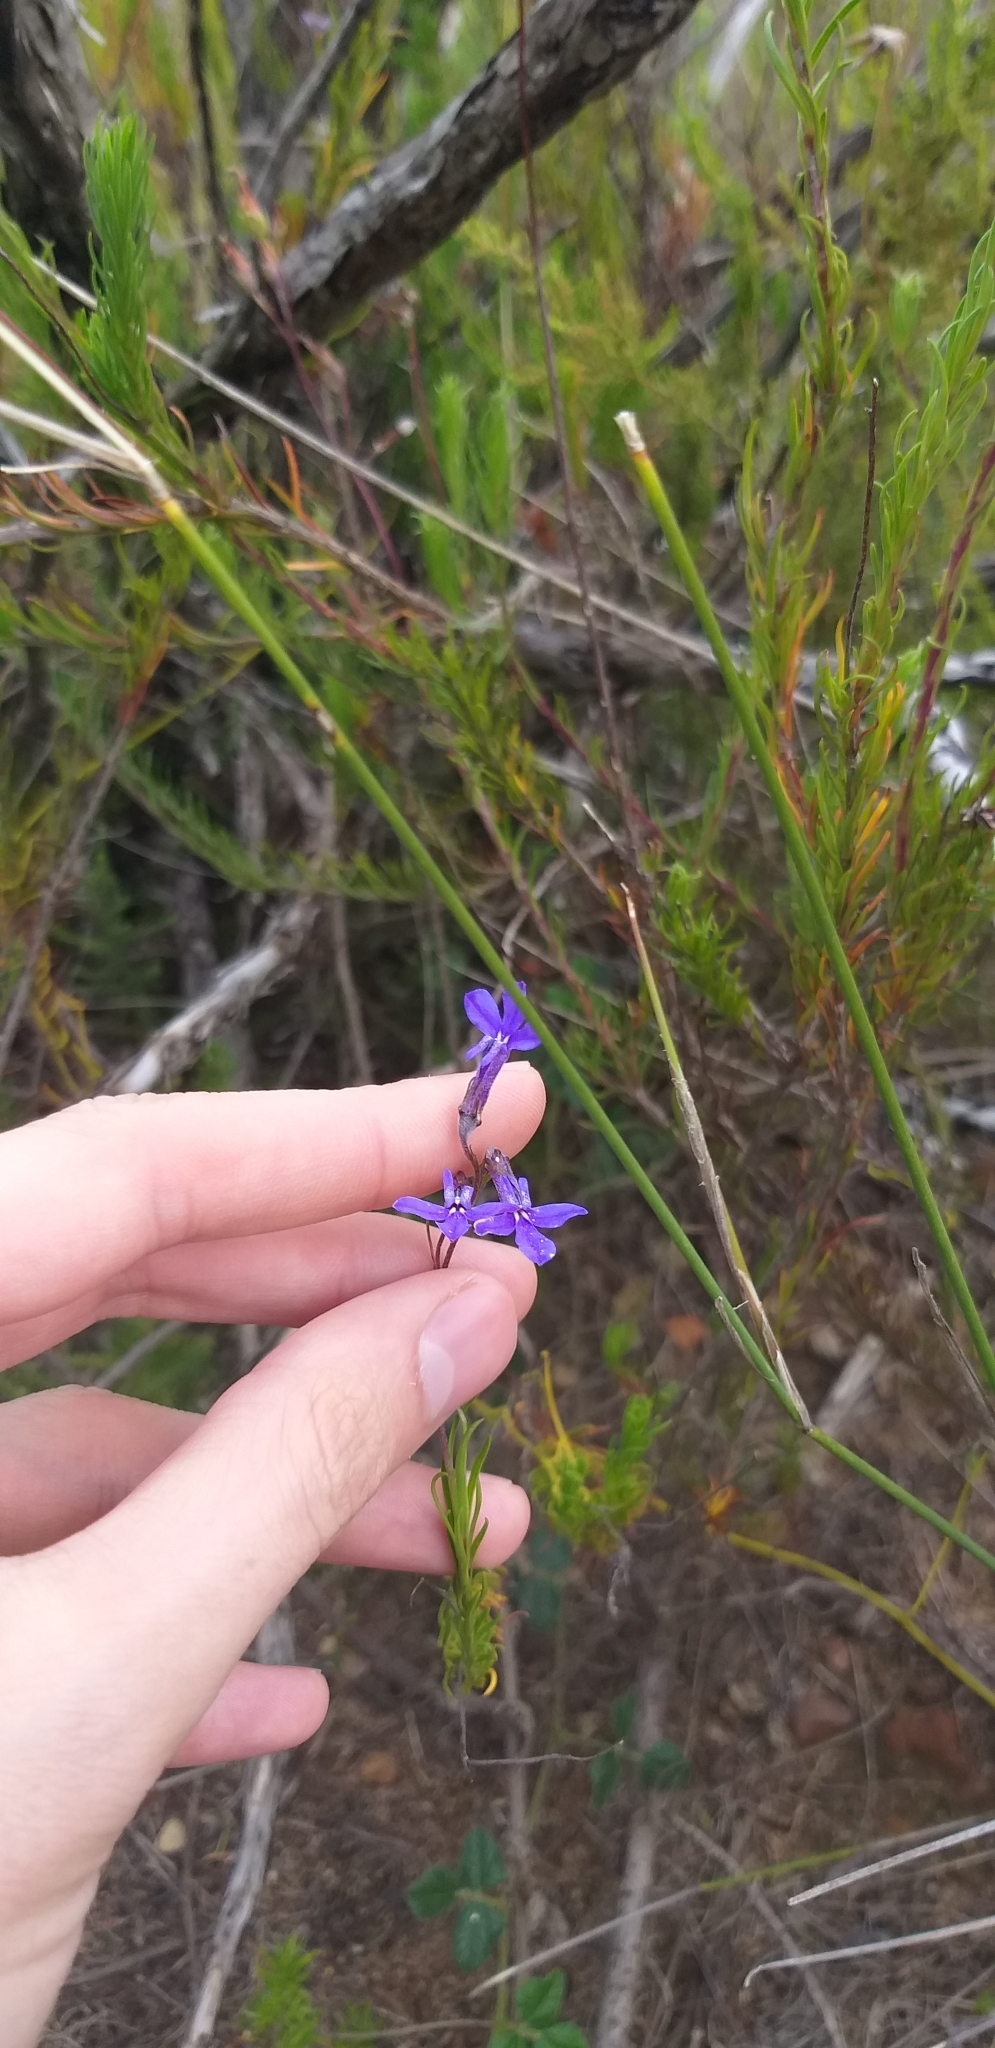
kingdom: Plantae
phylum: Tracheophyta
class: Magnoliopsida
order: Asterales
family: Campanulaceae
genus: Lobelia
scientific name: Lobelia pinifolia
